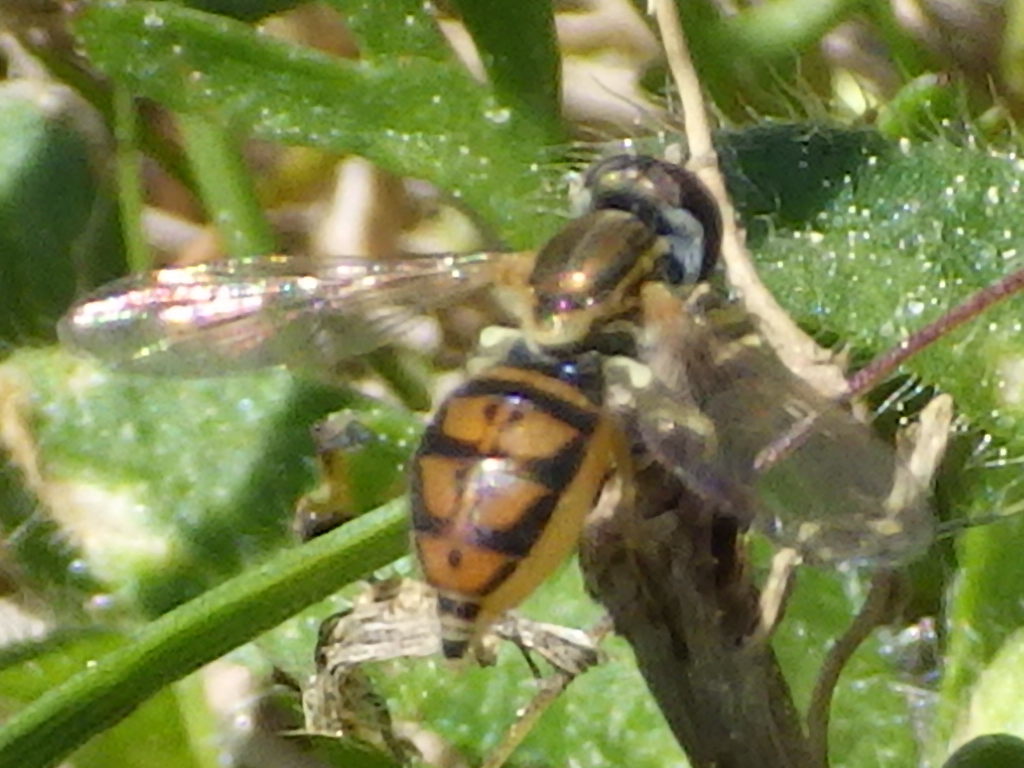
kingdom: Animalia
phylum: Arthropoda
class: Insecta
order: Diptera
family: Syrphidae
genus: Toxomerus
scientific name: Toxomerus marginatus
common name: Syrphid fly
